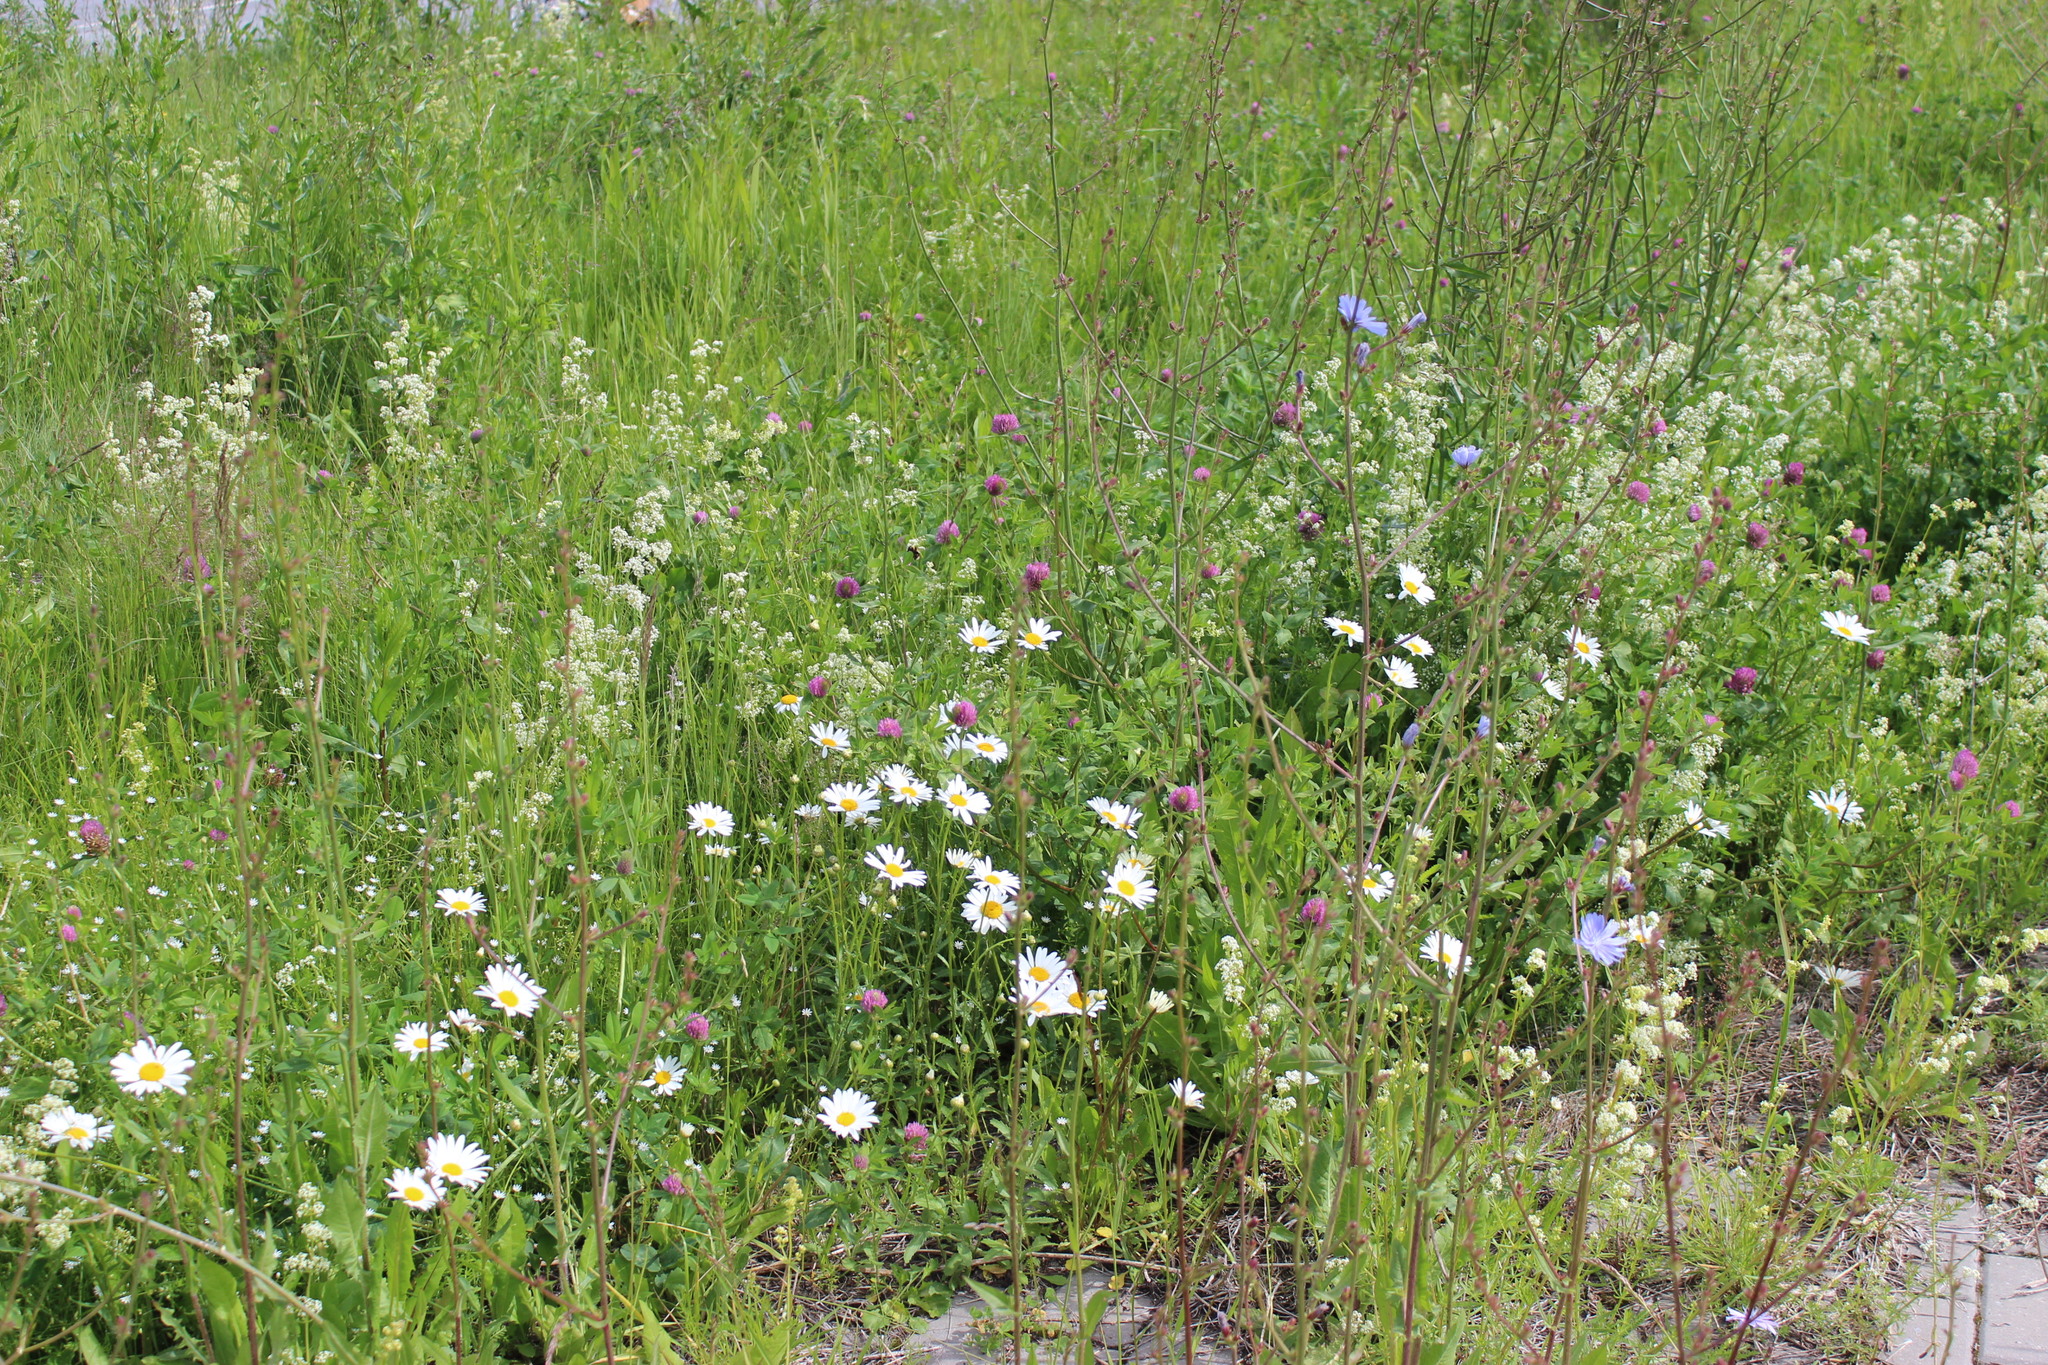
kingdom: Plantae
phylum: Tracheophyta
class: Magnoliopsida
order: Asterales
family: Asteraceae
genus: Cichorium
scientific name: Cichorium intybus
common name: Chicory
